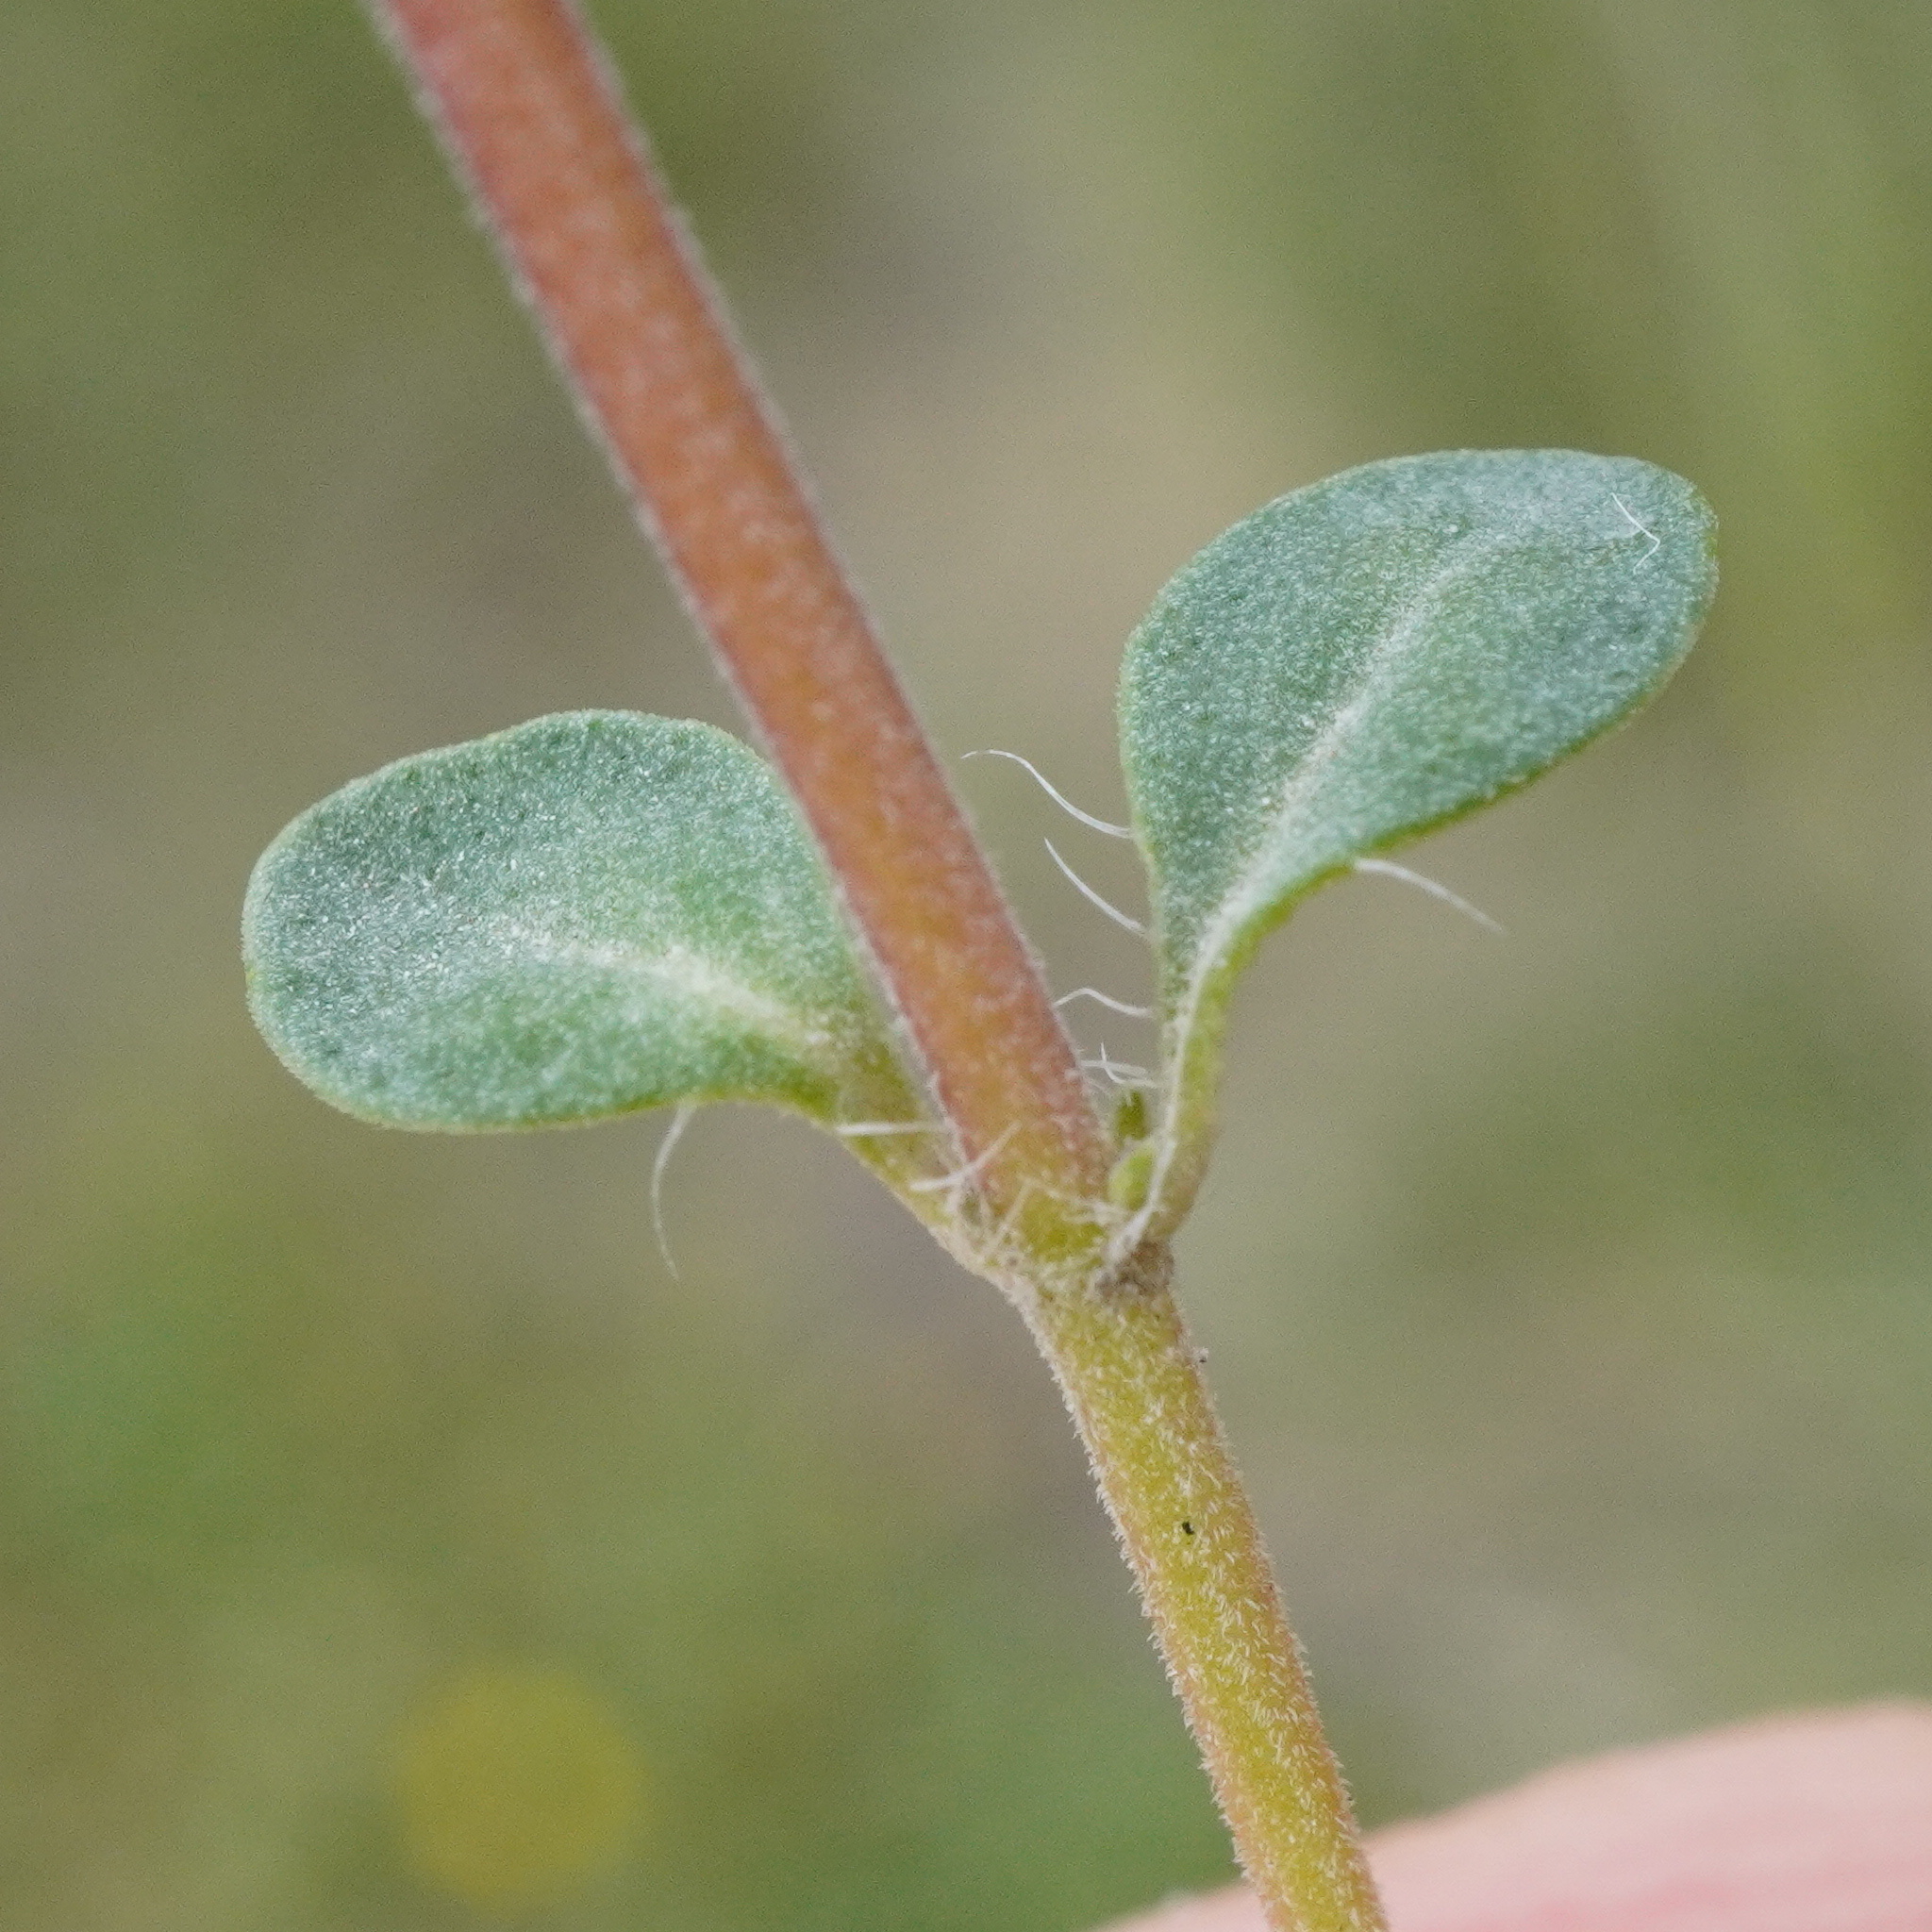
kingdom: Plantae
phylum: Tracheophyta
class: Magnoliopsida
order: Lamiales
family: Lamiaceae
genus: Thymus
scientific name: Thymus praecox
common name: Wild thyme
